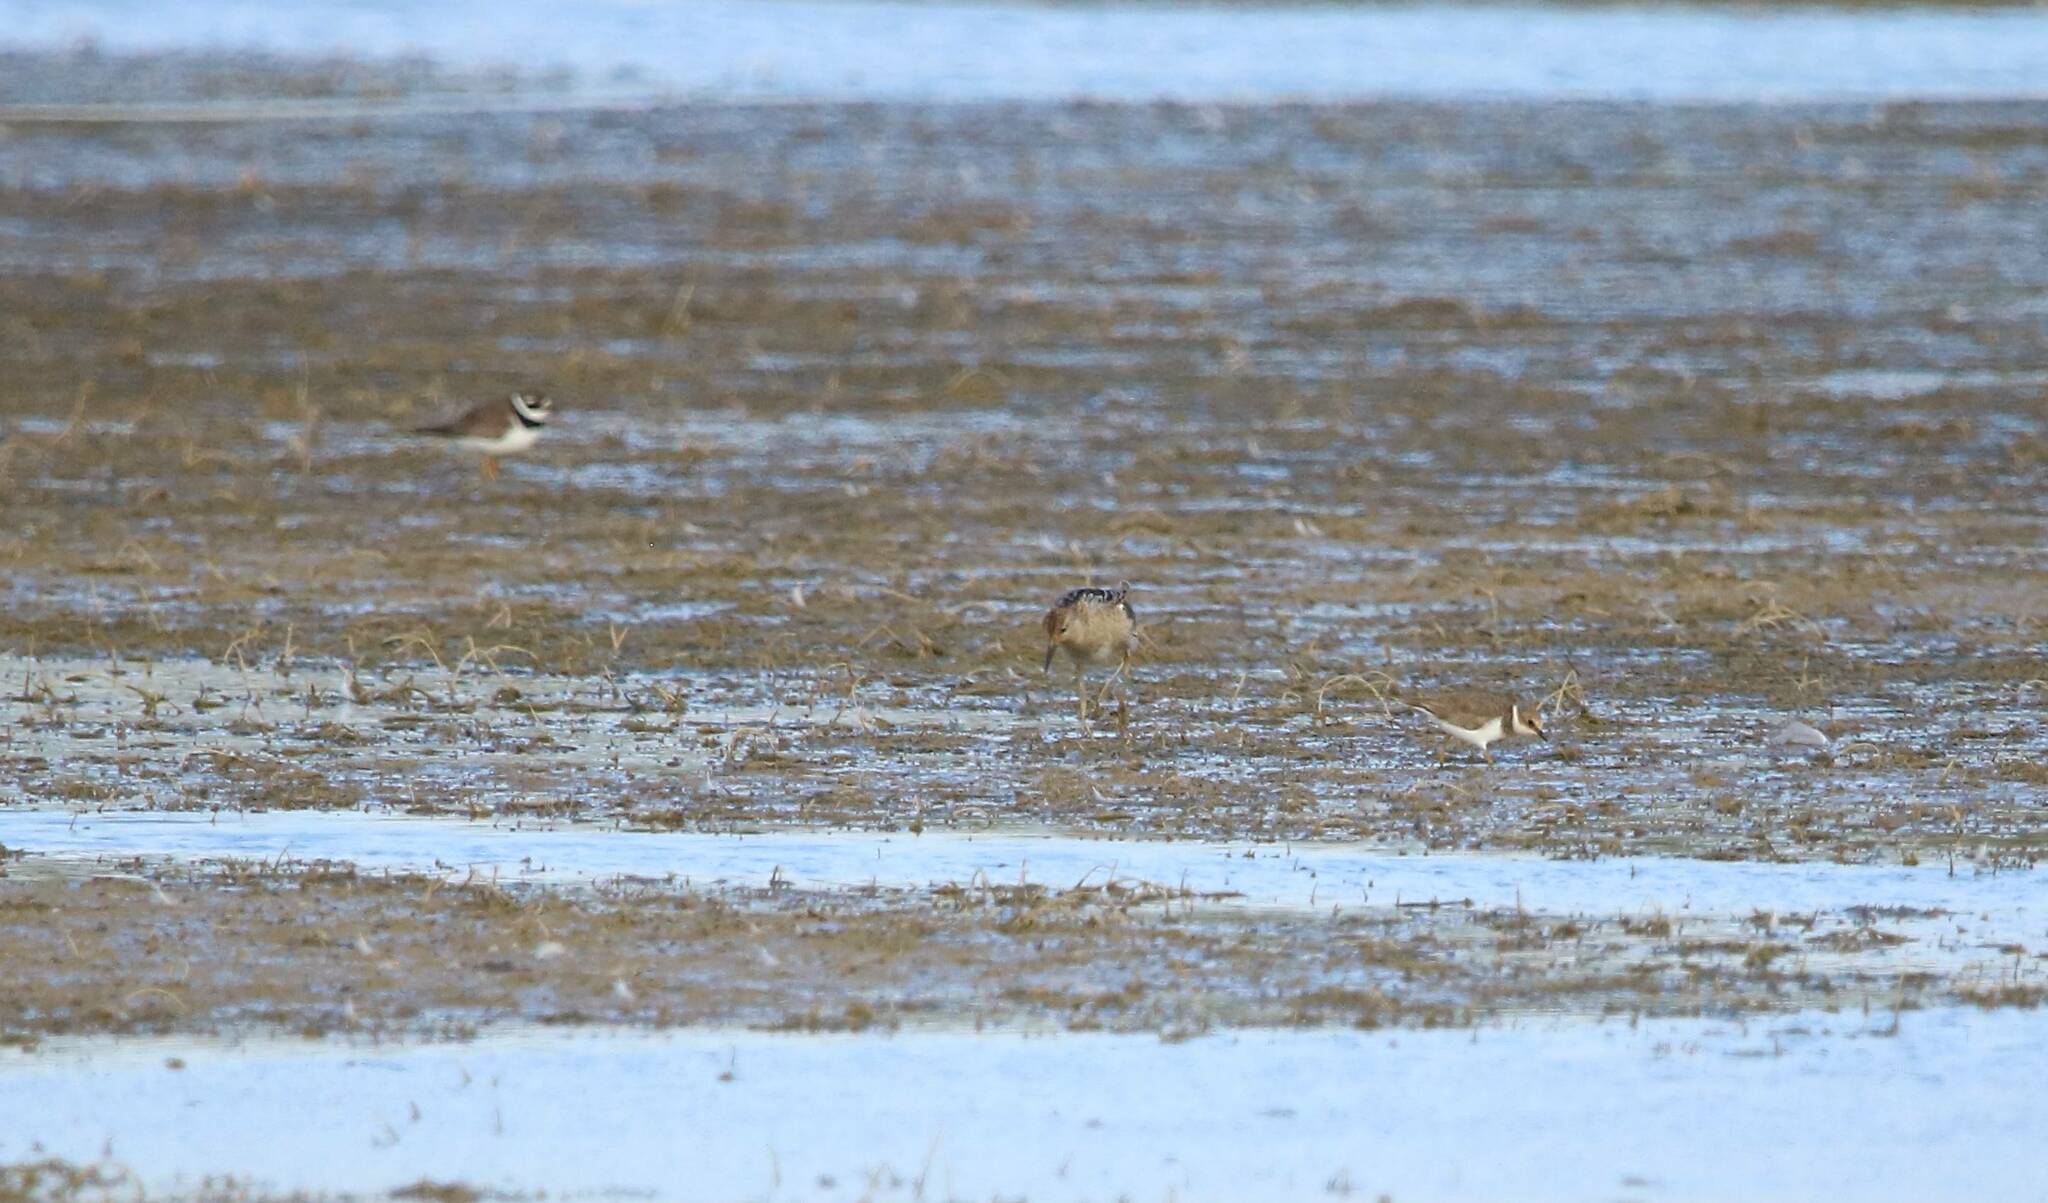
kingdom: Animalia
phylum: Chordata
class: Aves
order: Charadriiformes
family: Charadriidae
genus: Charadrius
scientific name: Charadrius dubius
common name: Little ringed plover
